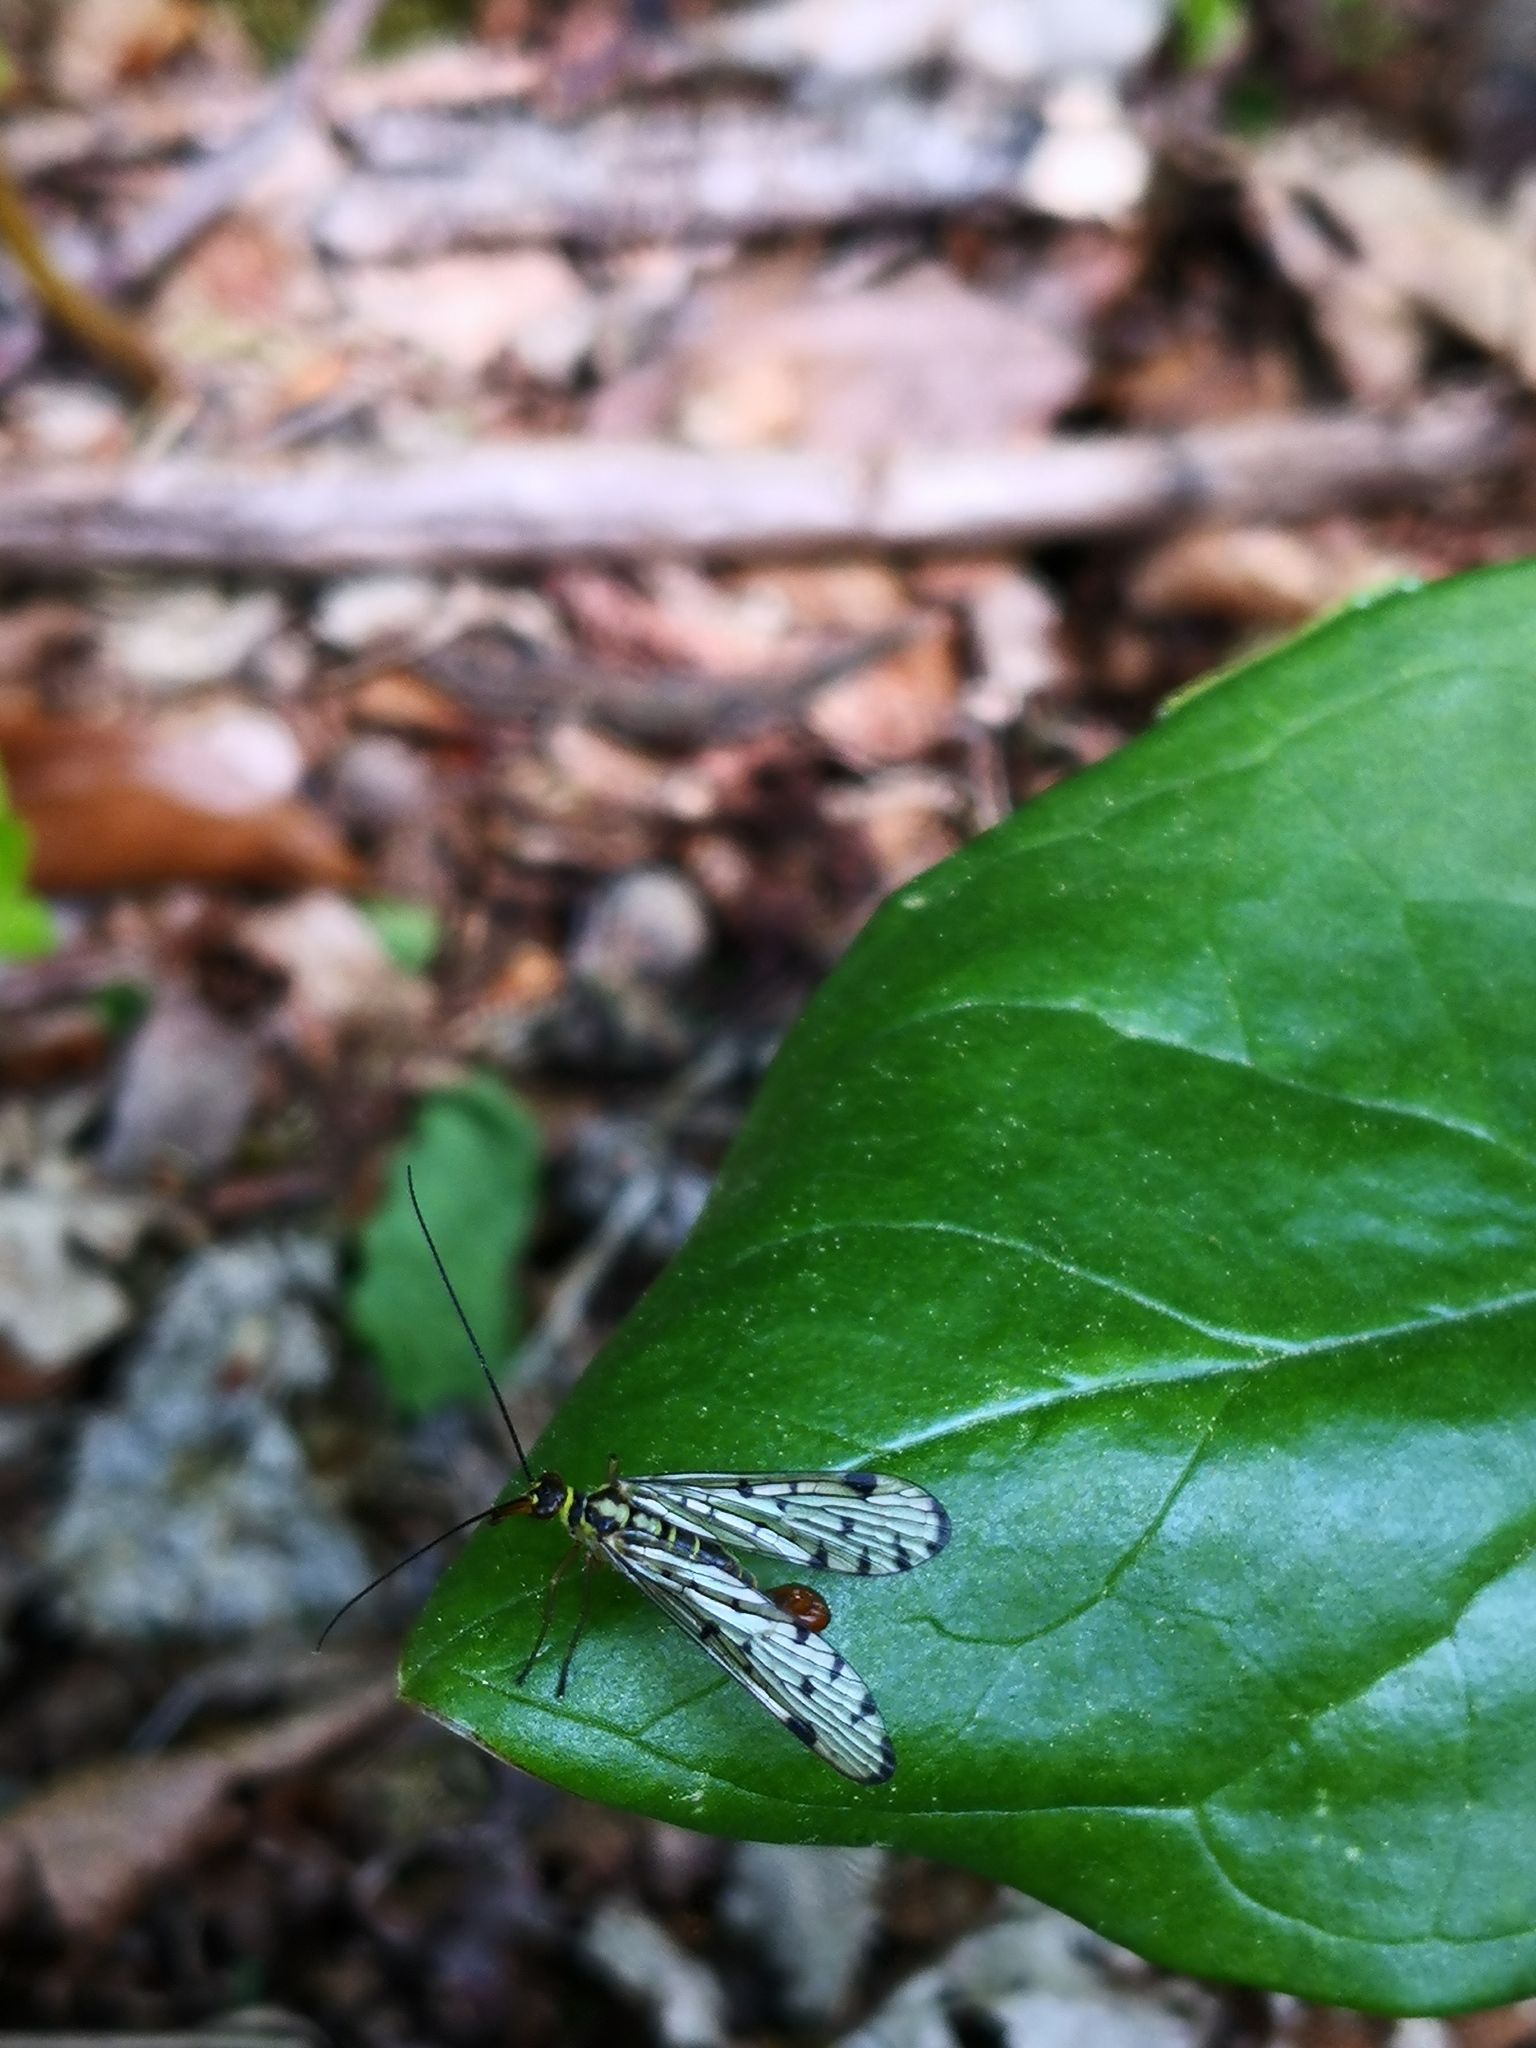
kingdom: Animalia
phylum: Arthropoda
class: Insecta
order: Mecoptera
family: Panorpidae
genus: Panorpa
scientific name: Panorpa germanica
